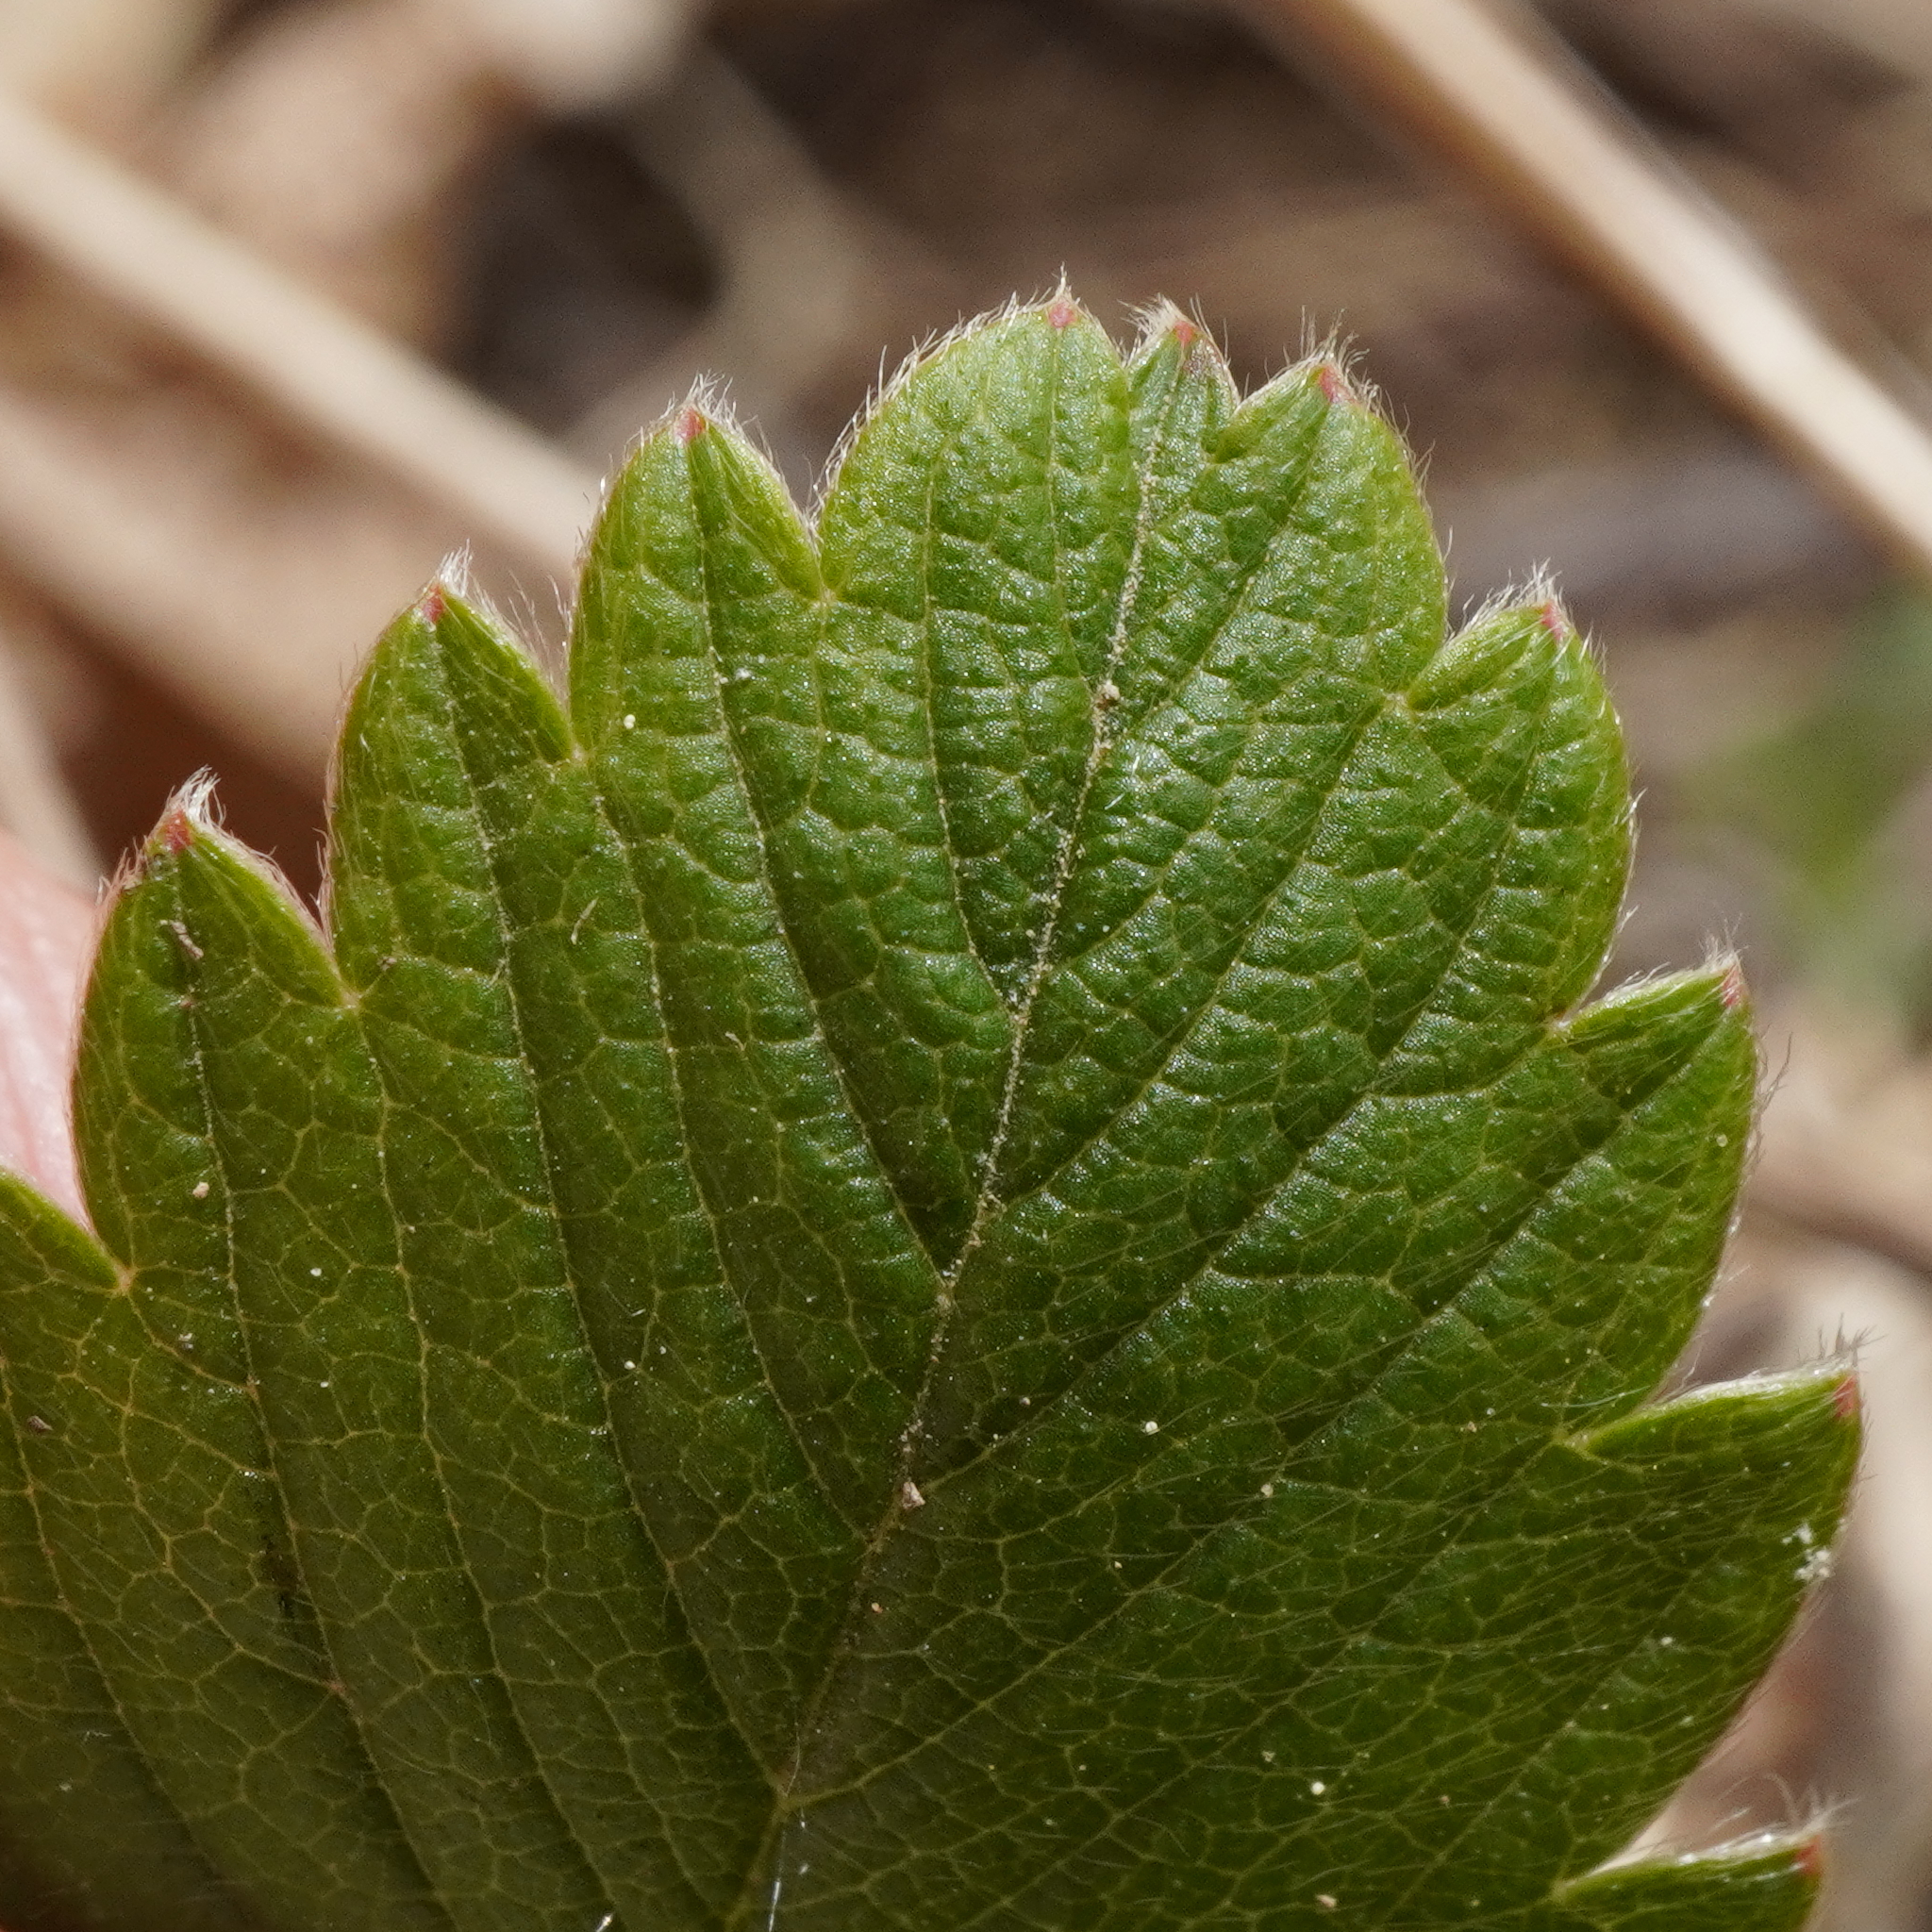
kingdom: Plantae
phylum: Tracheophyta
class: Magnoliopsida
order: Rosales
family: Rosaceae
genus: Fragaria
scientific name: Fragaria viridis
